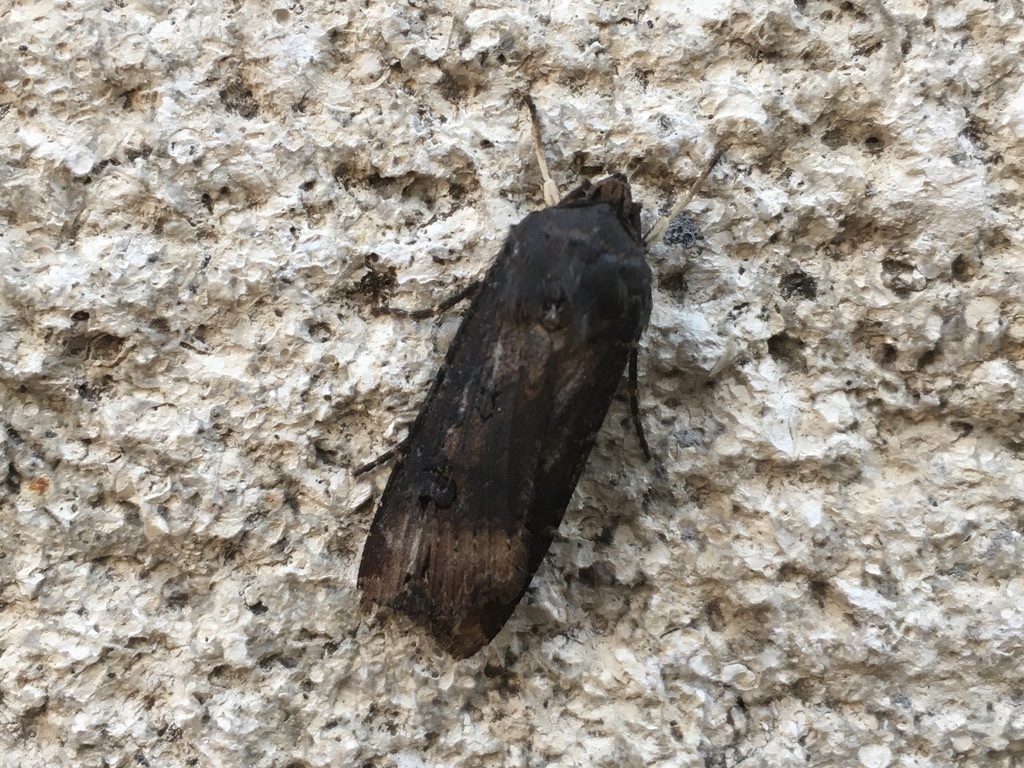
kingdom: Animalia
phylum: Arthropoda
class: Insecta
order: Lepidoptera
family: Noctuidae
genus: Agrotis
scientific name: Agrotis ipsilon
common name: Dark sword-grass
